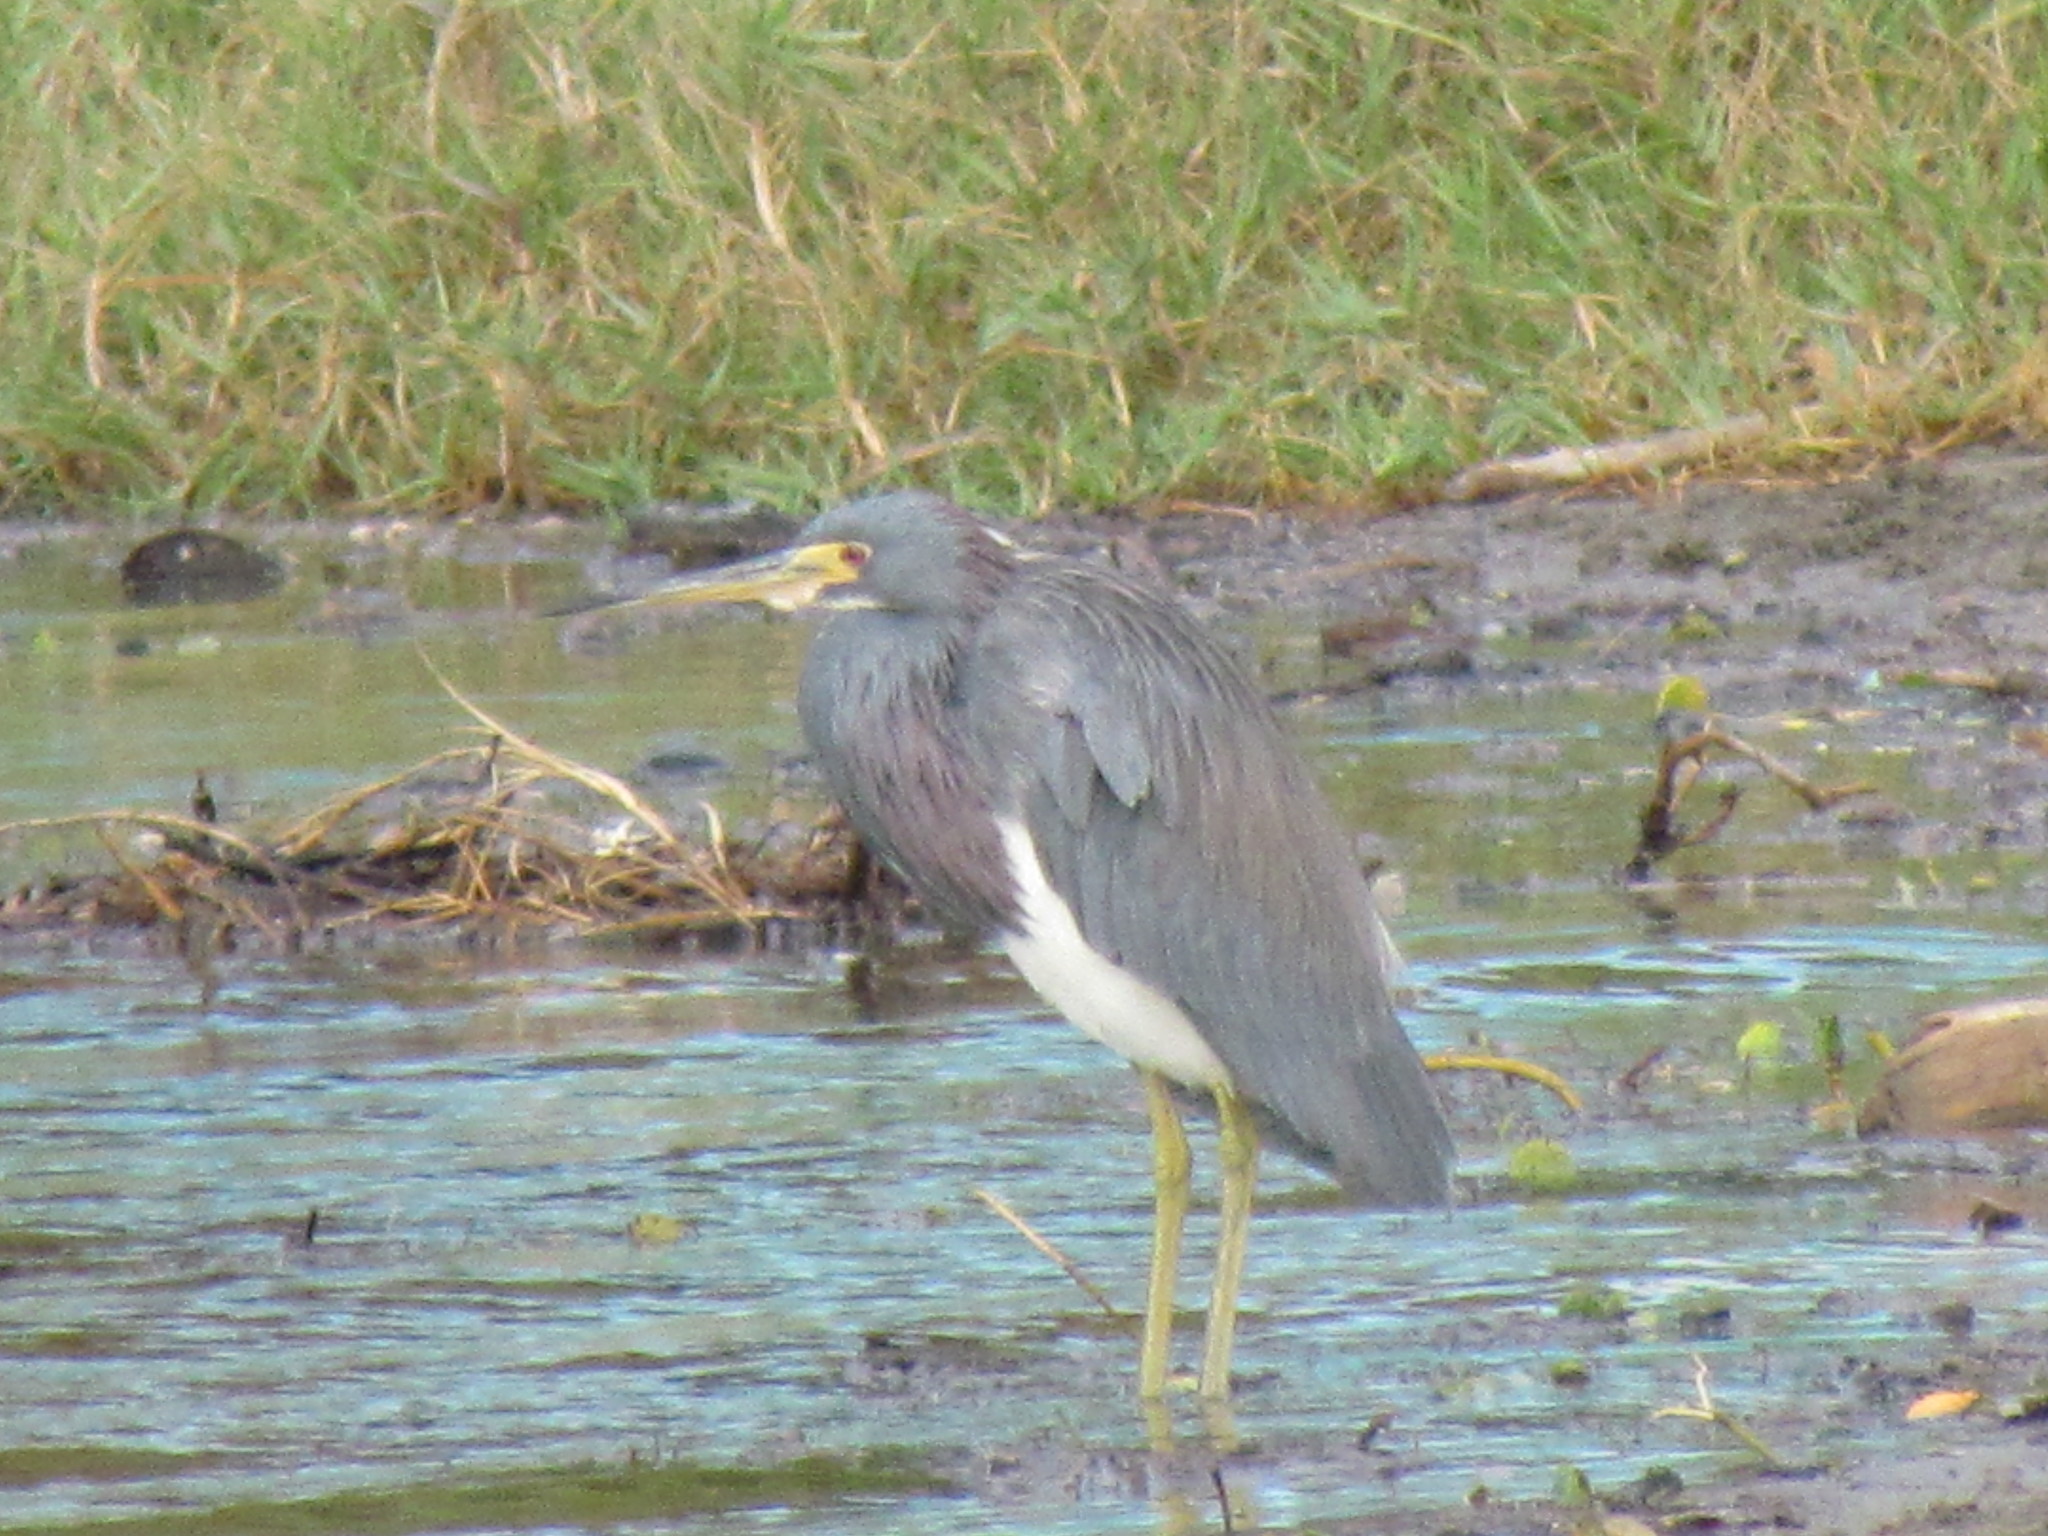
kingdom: Animalia
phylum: Chordata
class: Aves
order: Pelecaniformes
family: Ardeidae
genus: Egretta
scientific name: Egretta tricolor
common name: Tricolored heron
